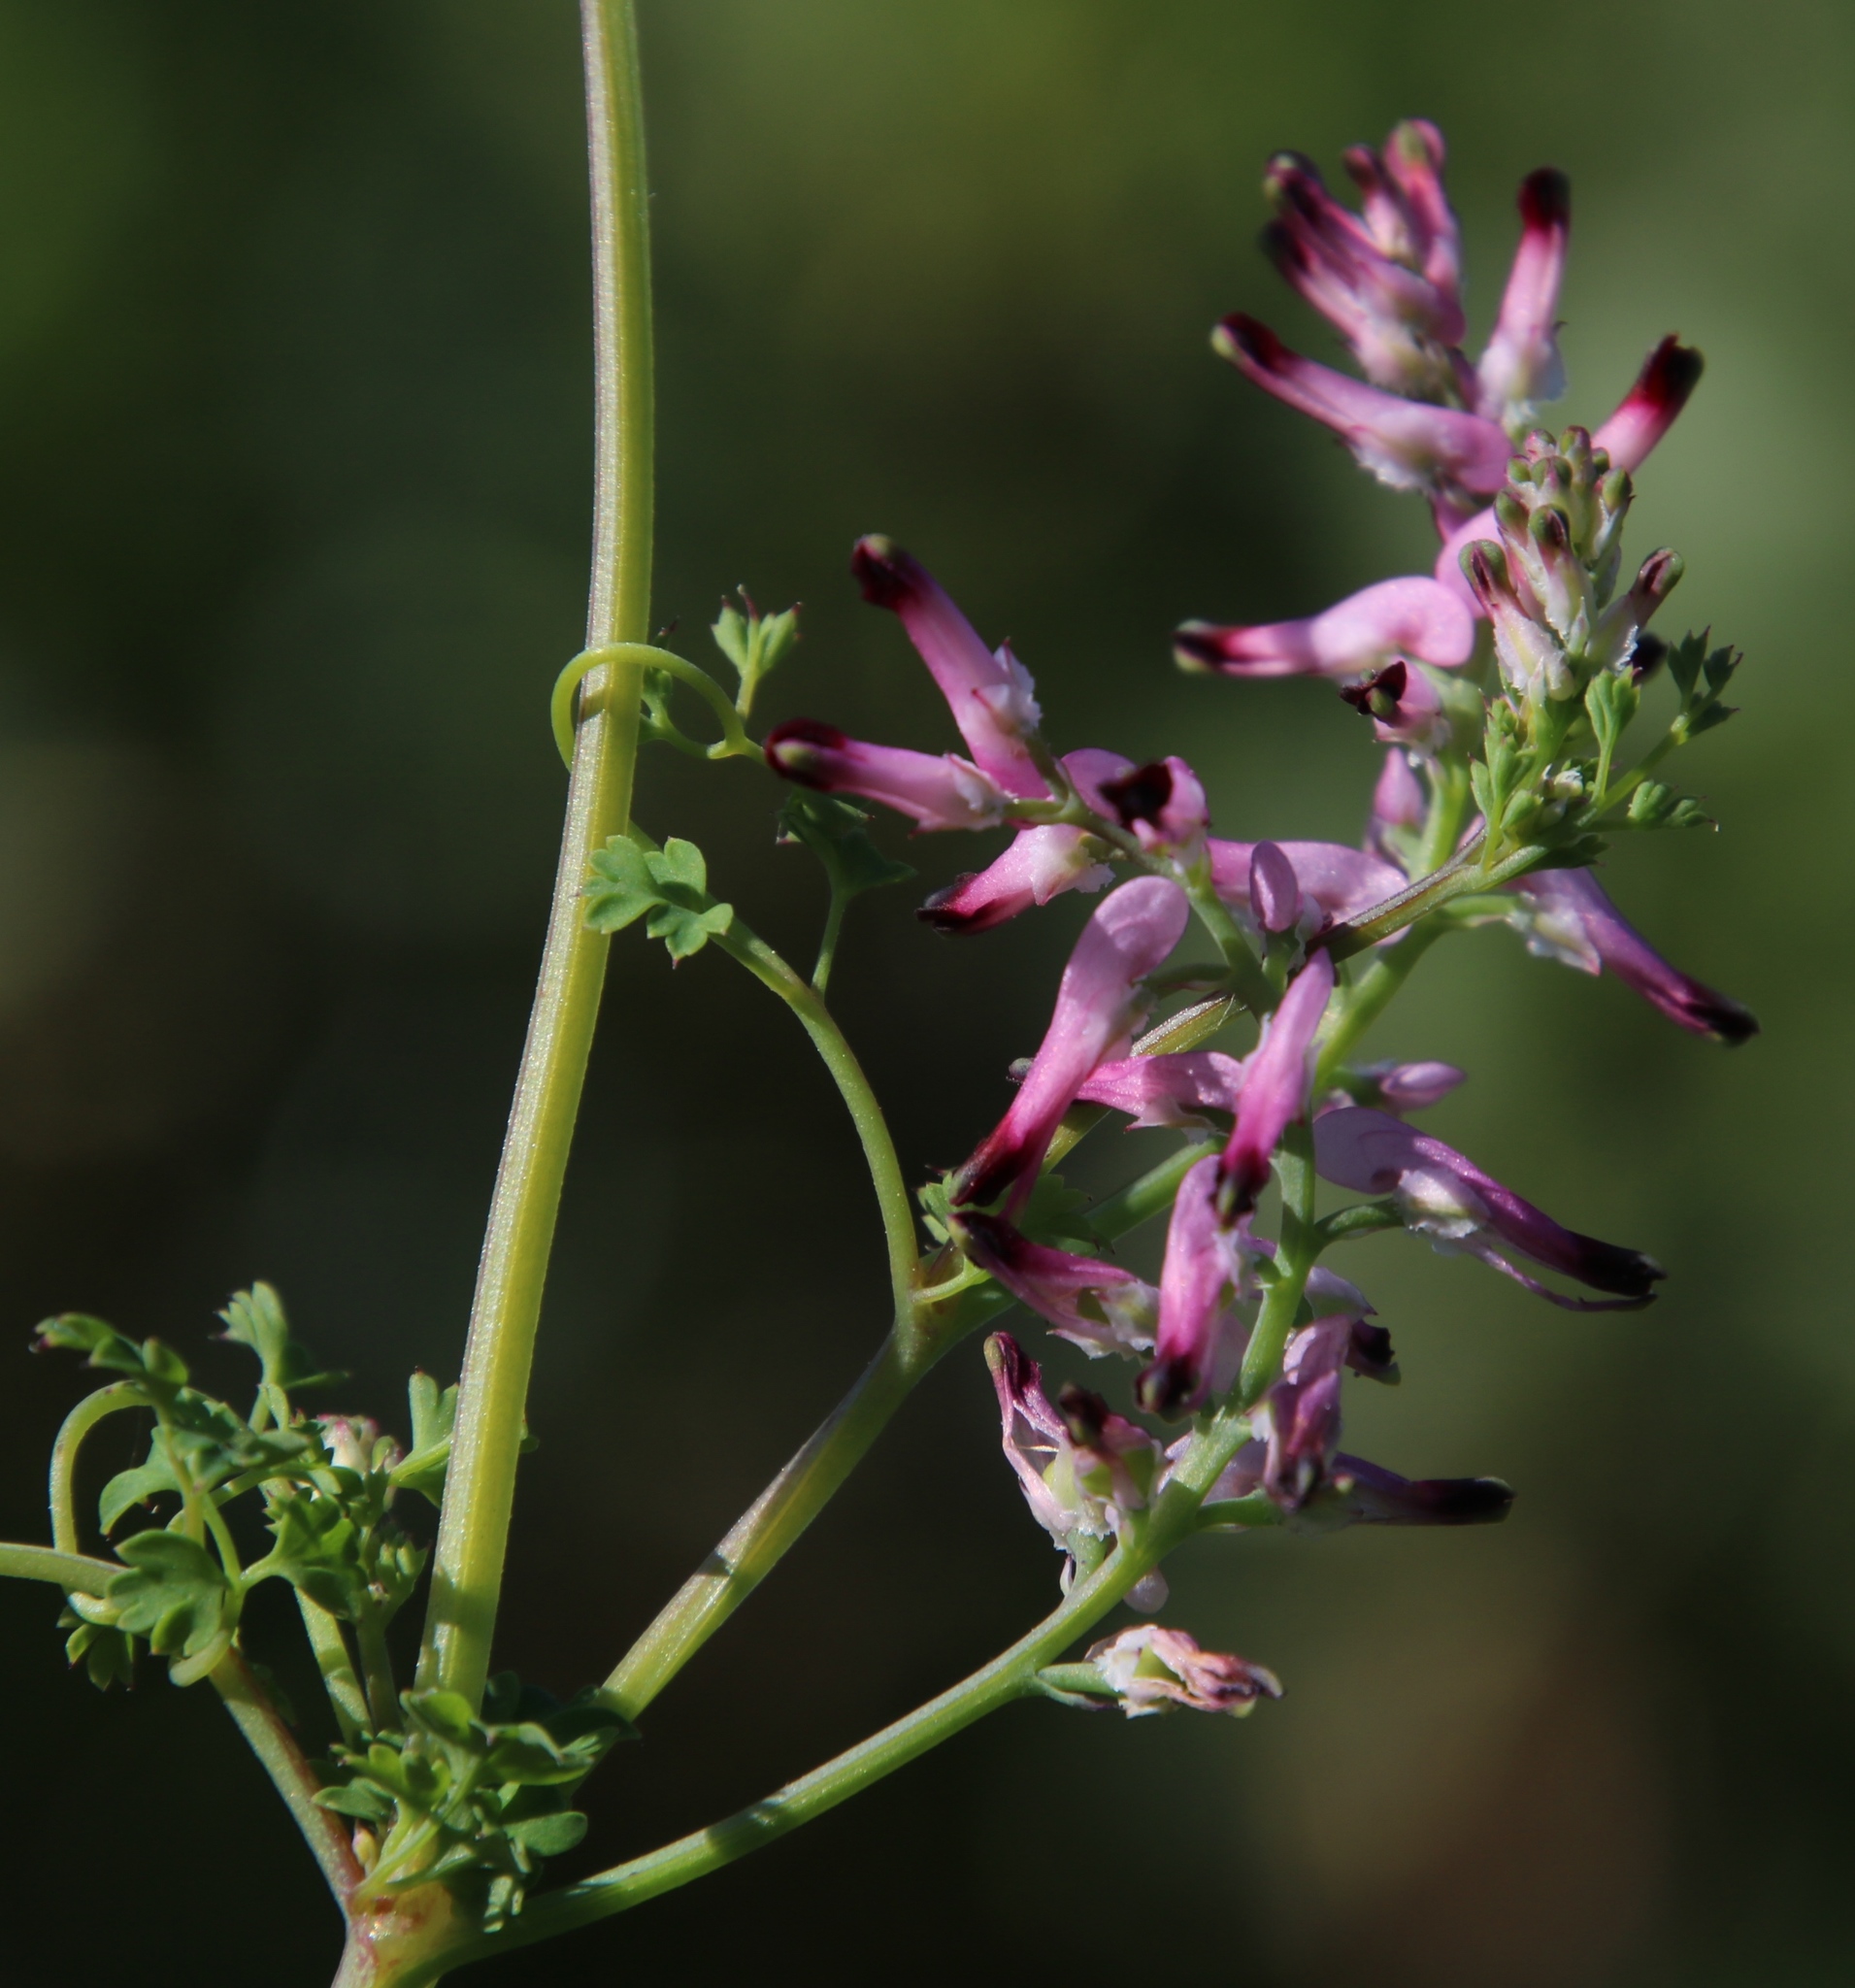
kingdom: Plantae
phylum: Tracheophyta
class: Magnoliopsida
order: Ranunculales
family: Papaveraceae
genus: Fumaria
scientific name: Fumaria muralis
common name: Common ramping-fumitory
